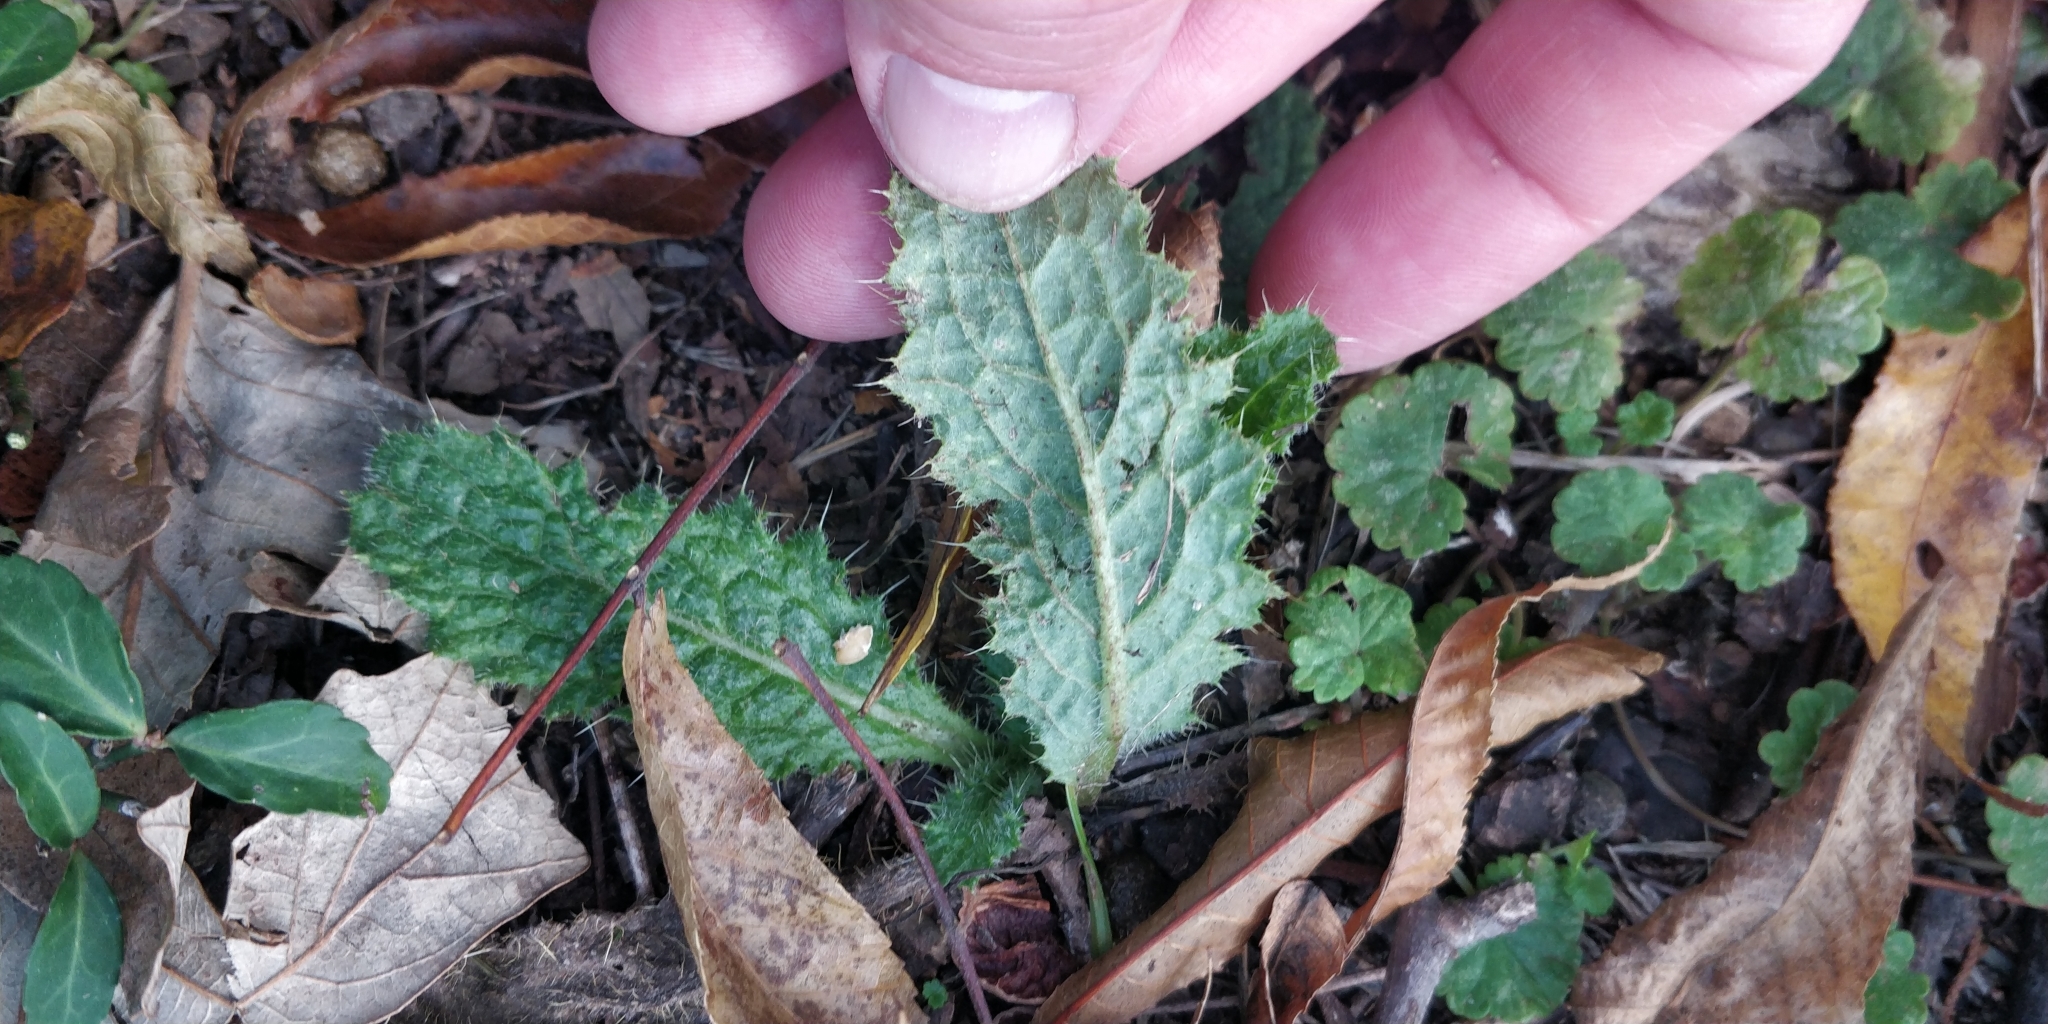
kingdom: Plantae
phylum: Tracheophyta
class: Magnoliopsida
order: Asterales
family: Asteraceae
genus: Cirsium
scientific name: Cirsium vulgare
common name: Bull thistle
